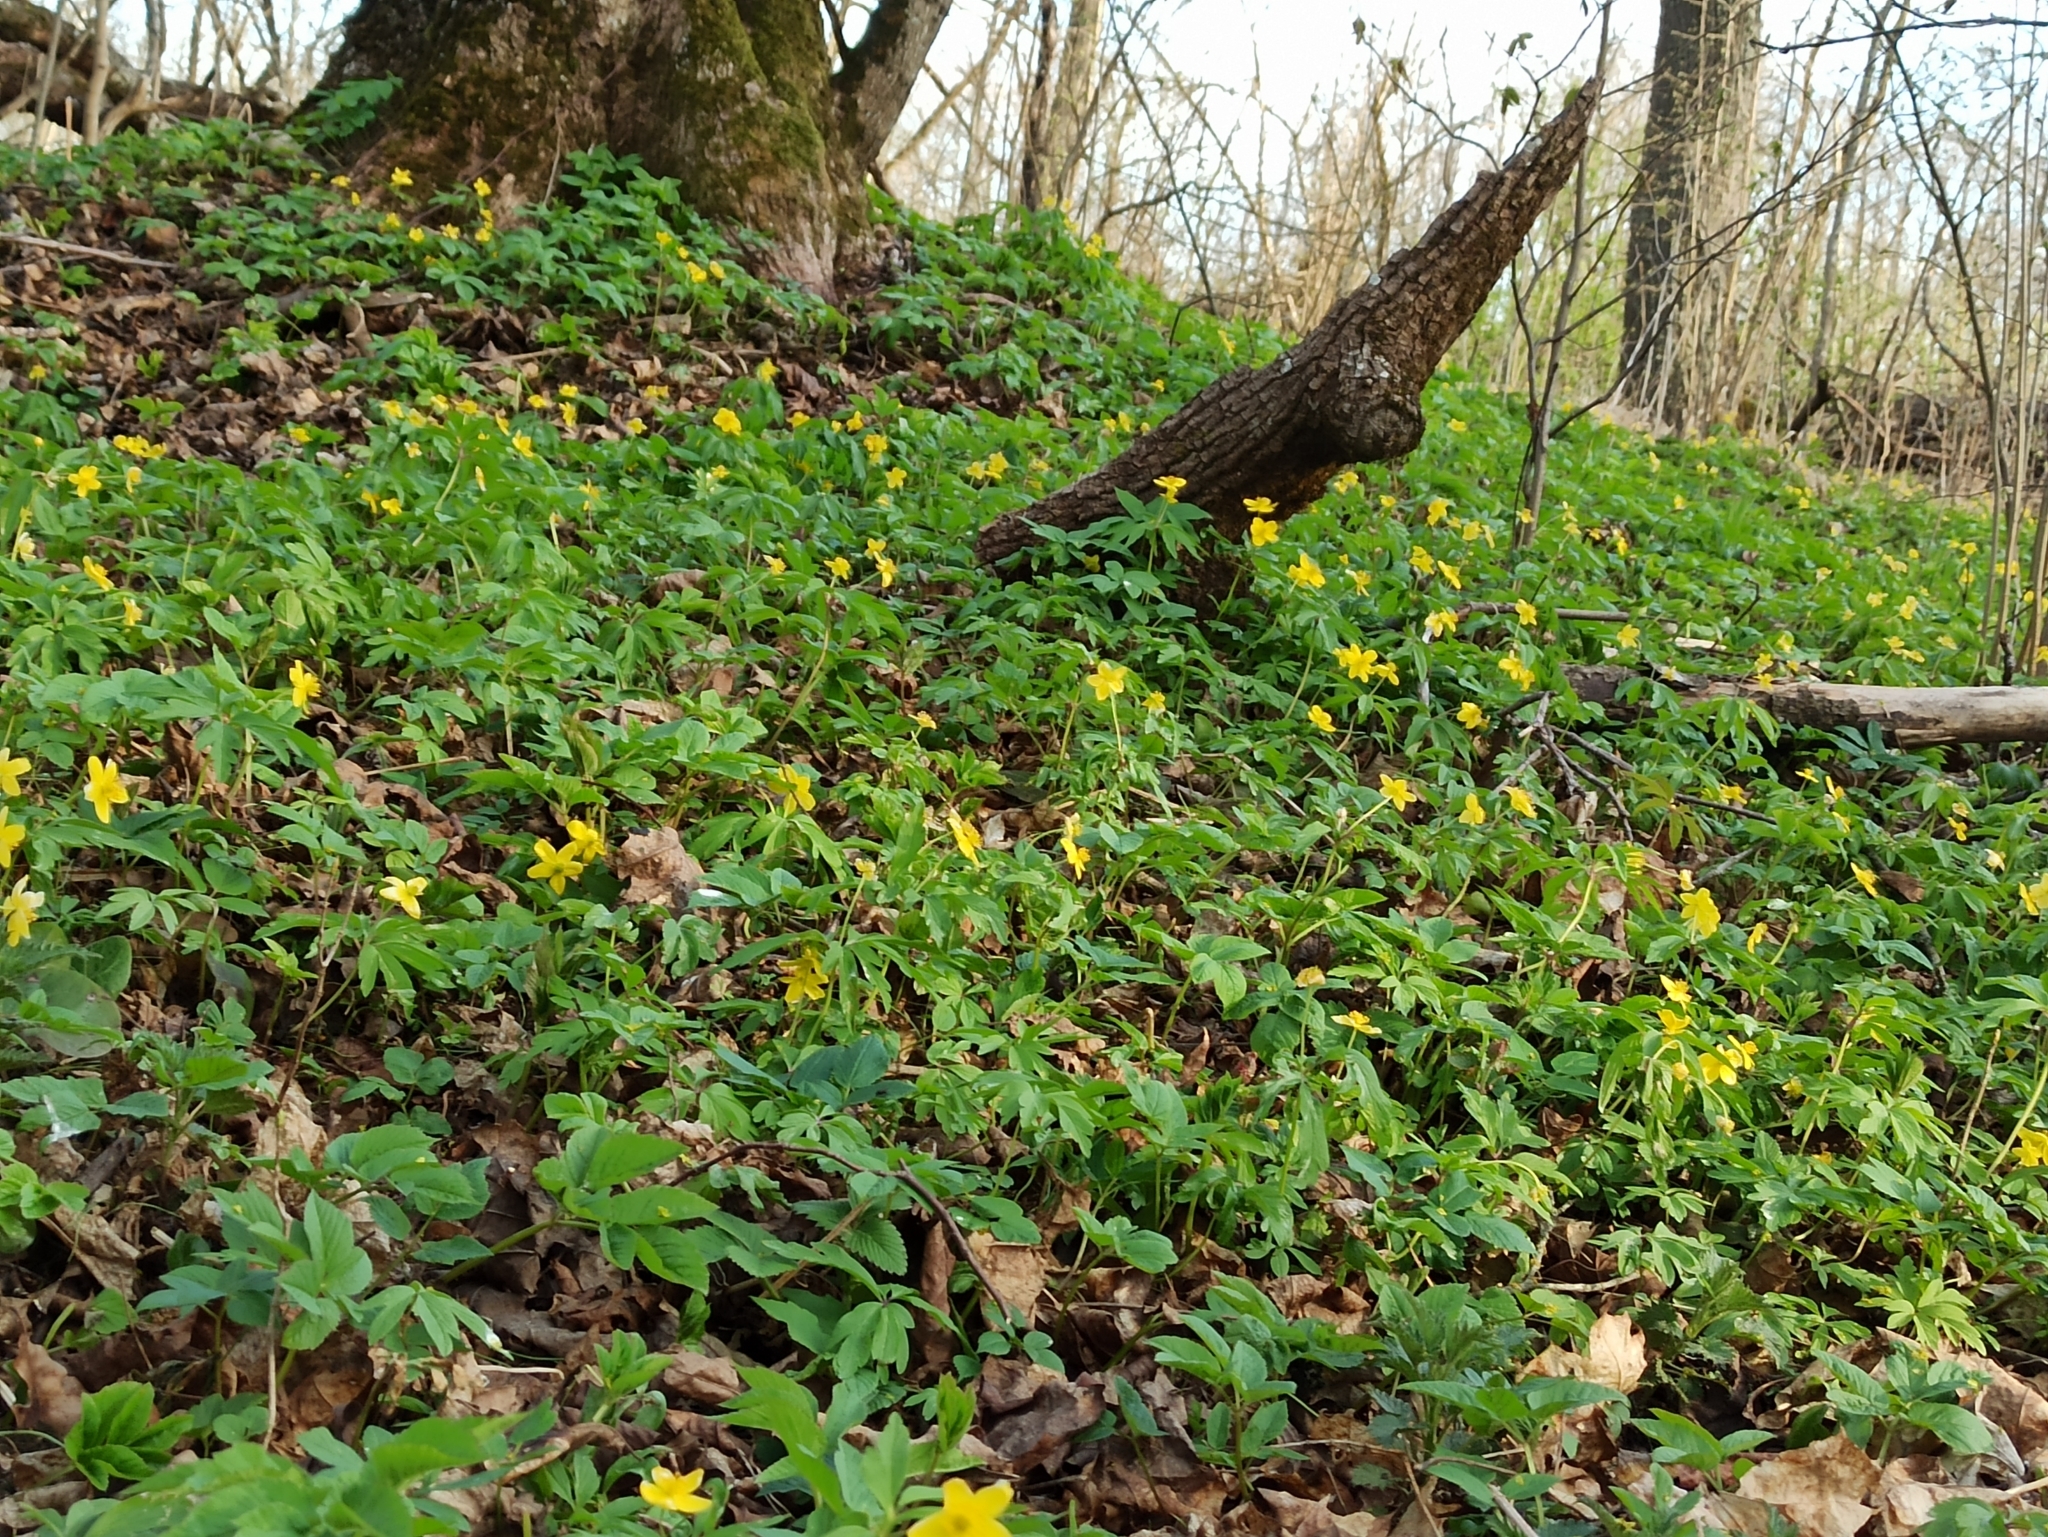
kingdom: Plantae
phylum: Tracheophyta
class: Magnoliopsida
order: Ranunculales
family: Ranunculaceae
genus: Anemone
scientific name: Anemone ranunculoides
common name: Yellow anemone
